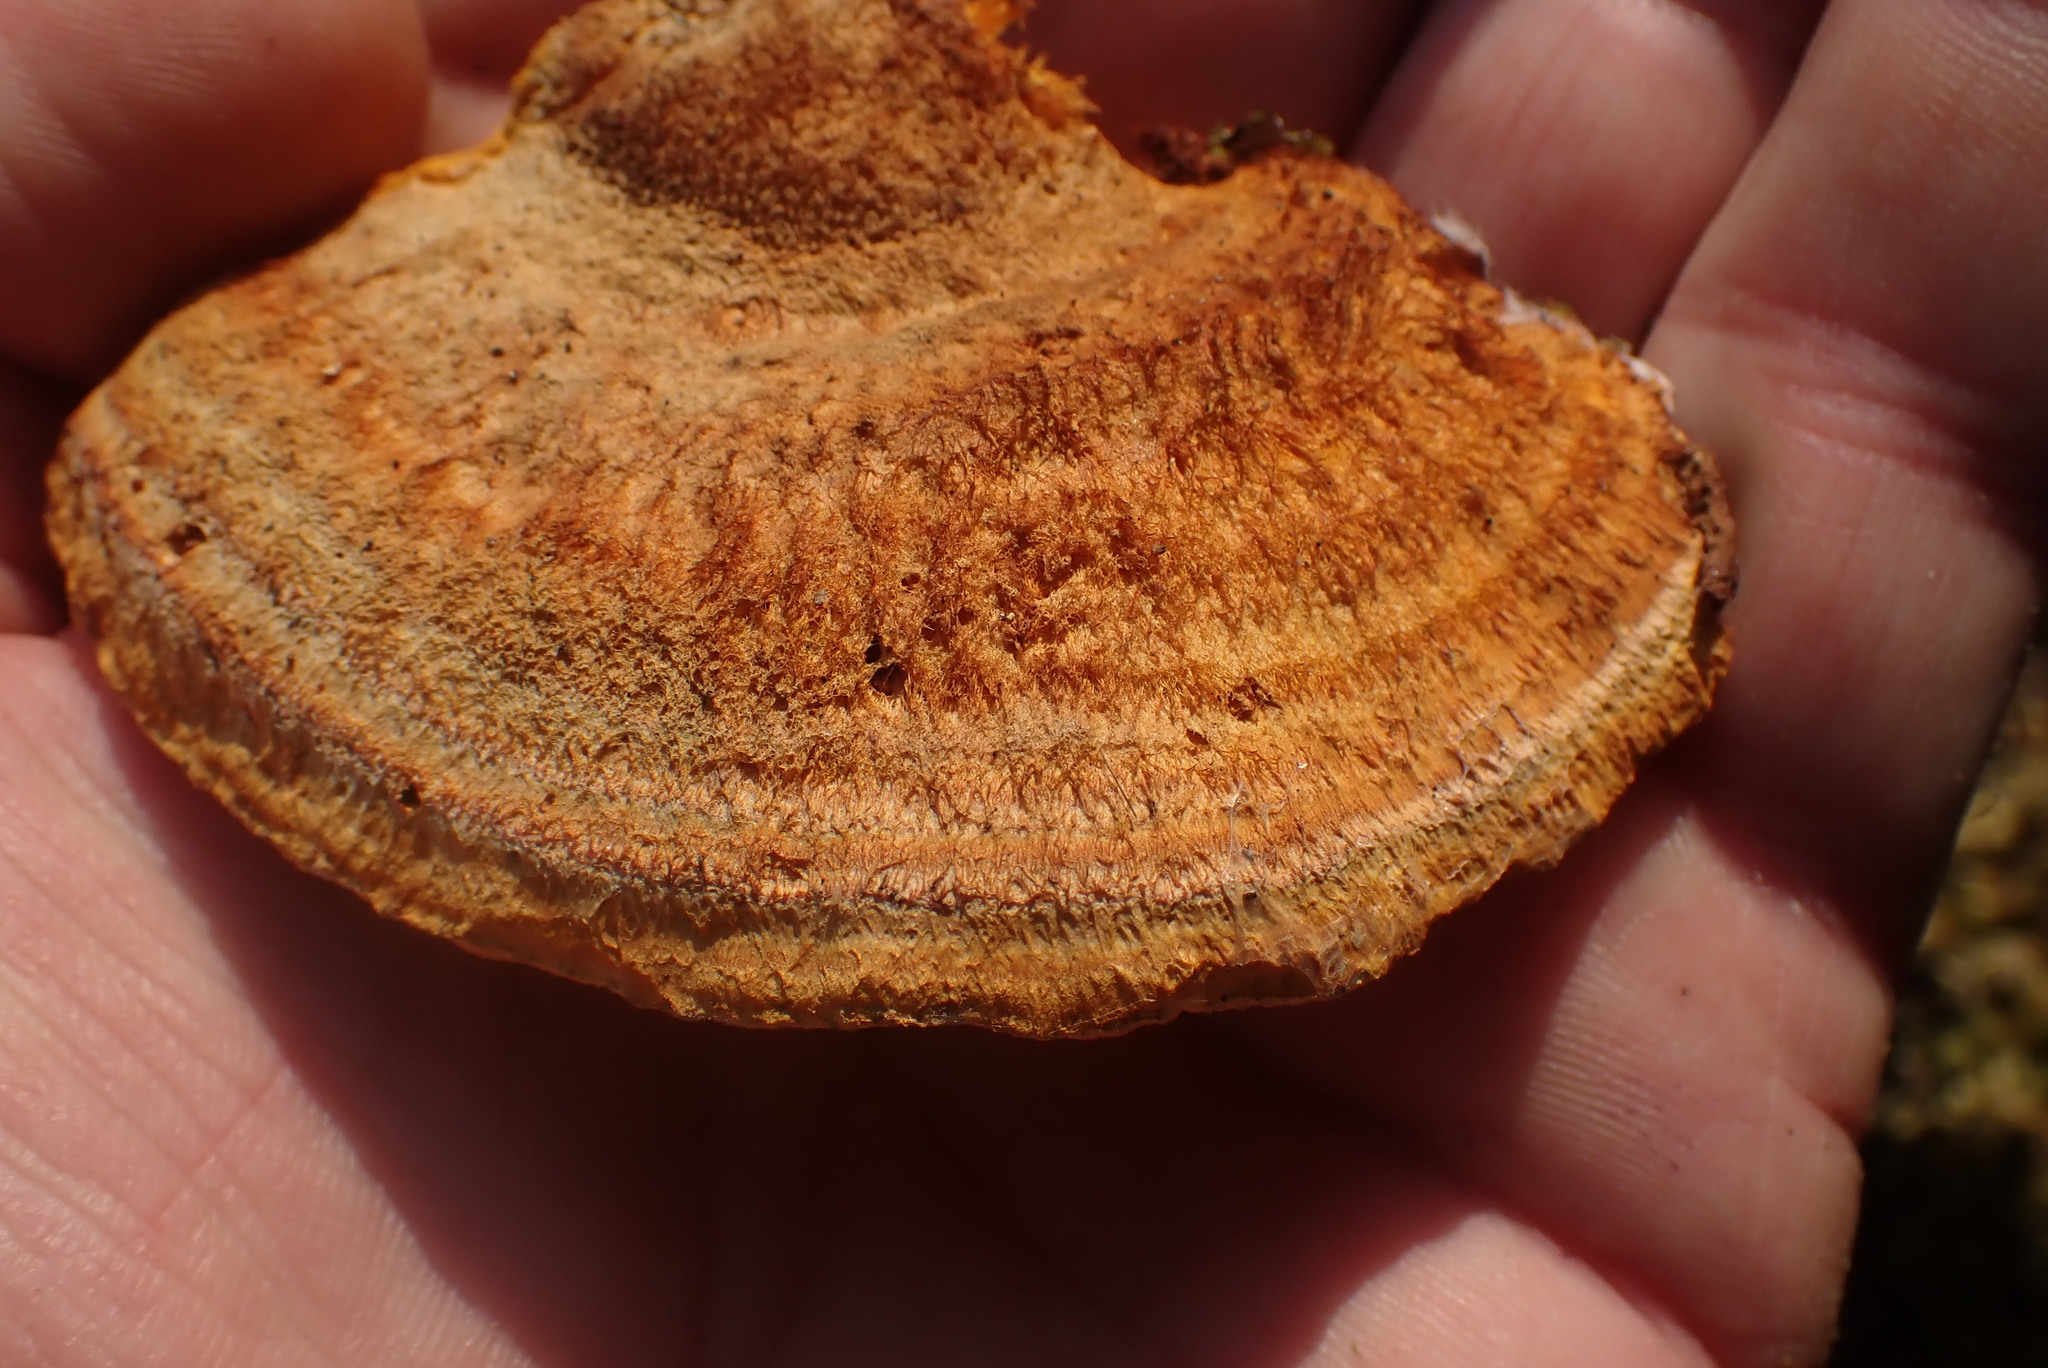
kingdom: Fungi
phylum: Basidiomycota
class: Agaricomycetes
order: Polyporales
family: Pycnoporellaceae
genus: Pycnoporellus
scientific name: Pycnoporellus fulgens
